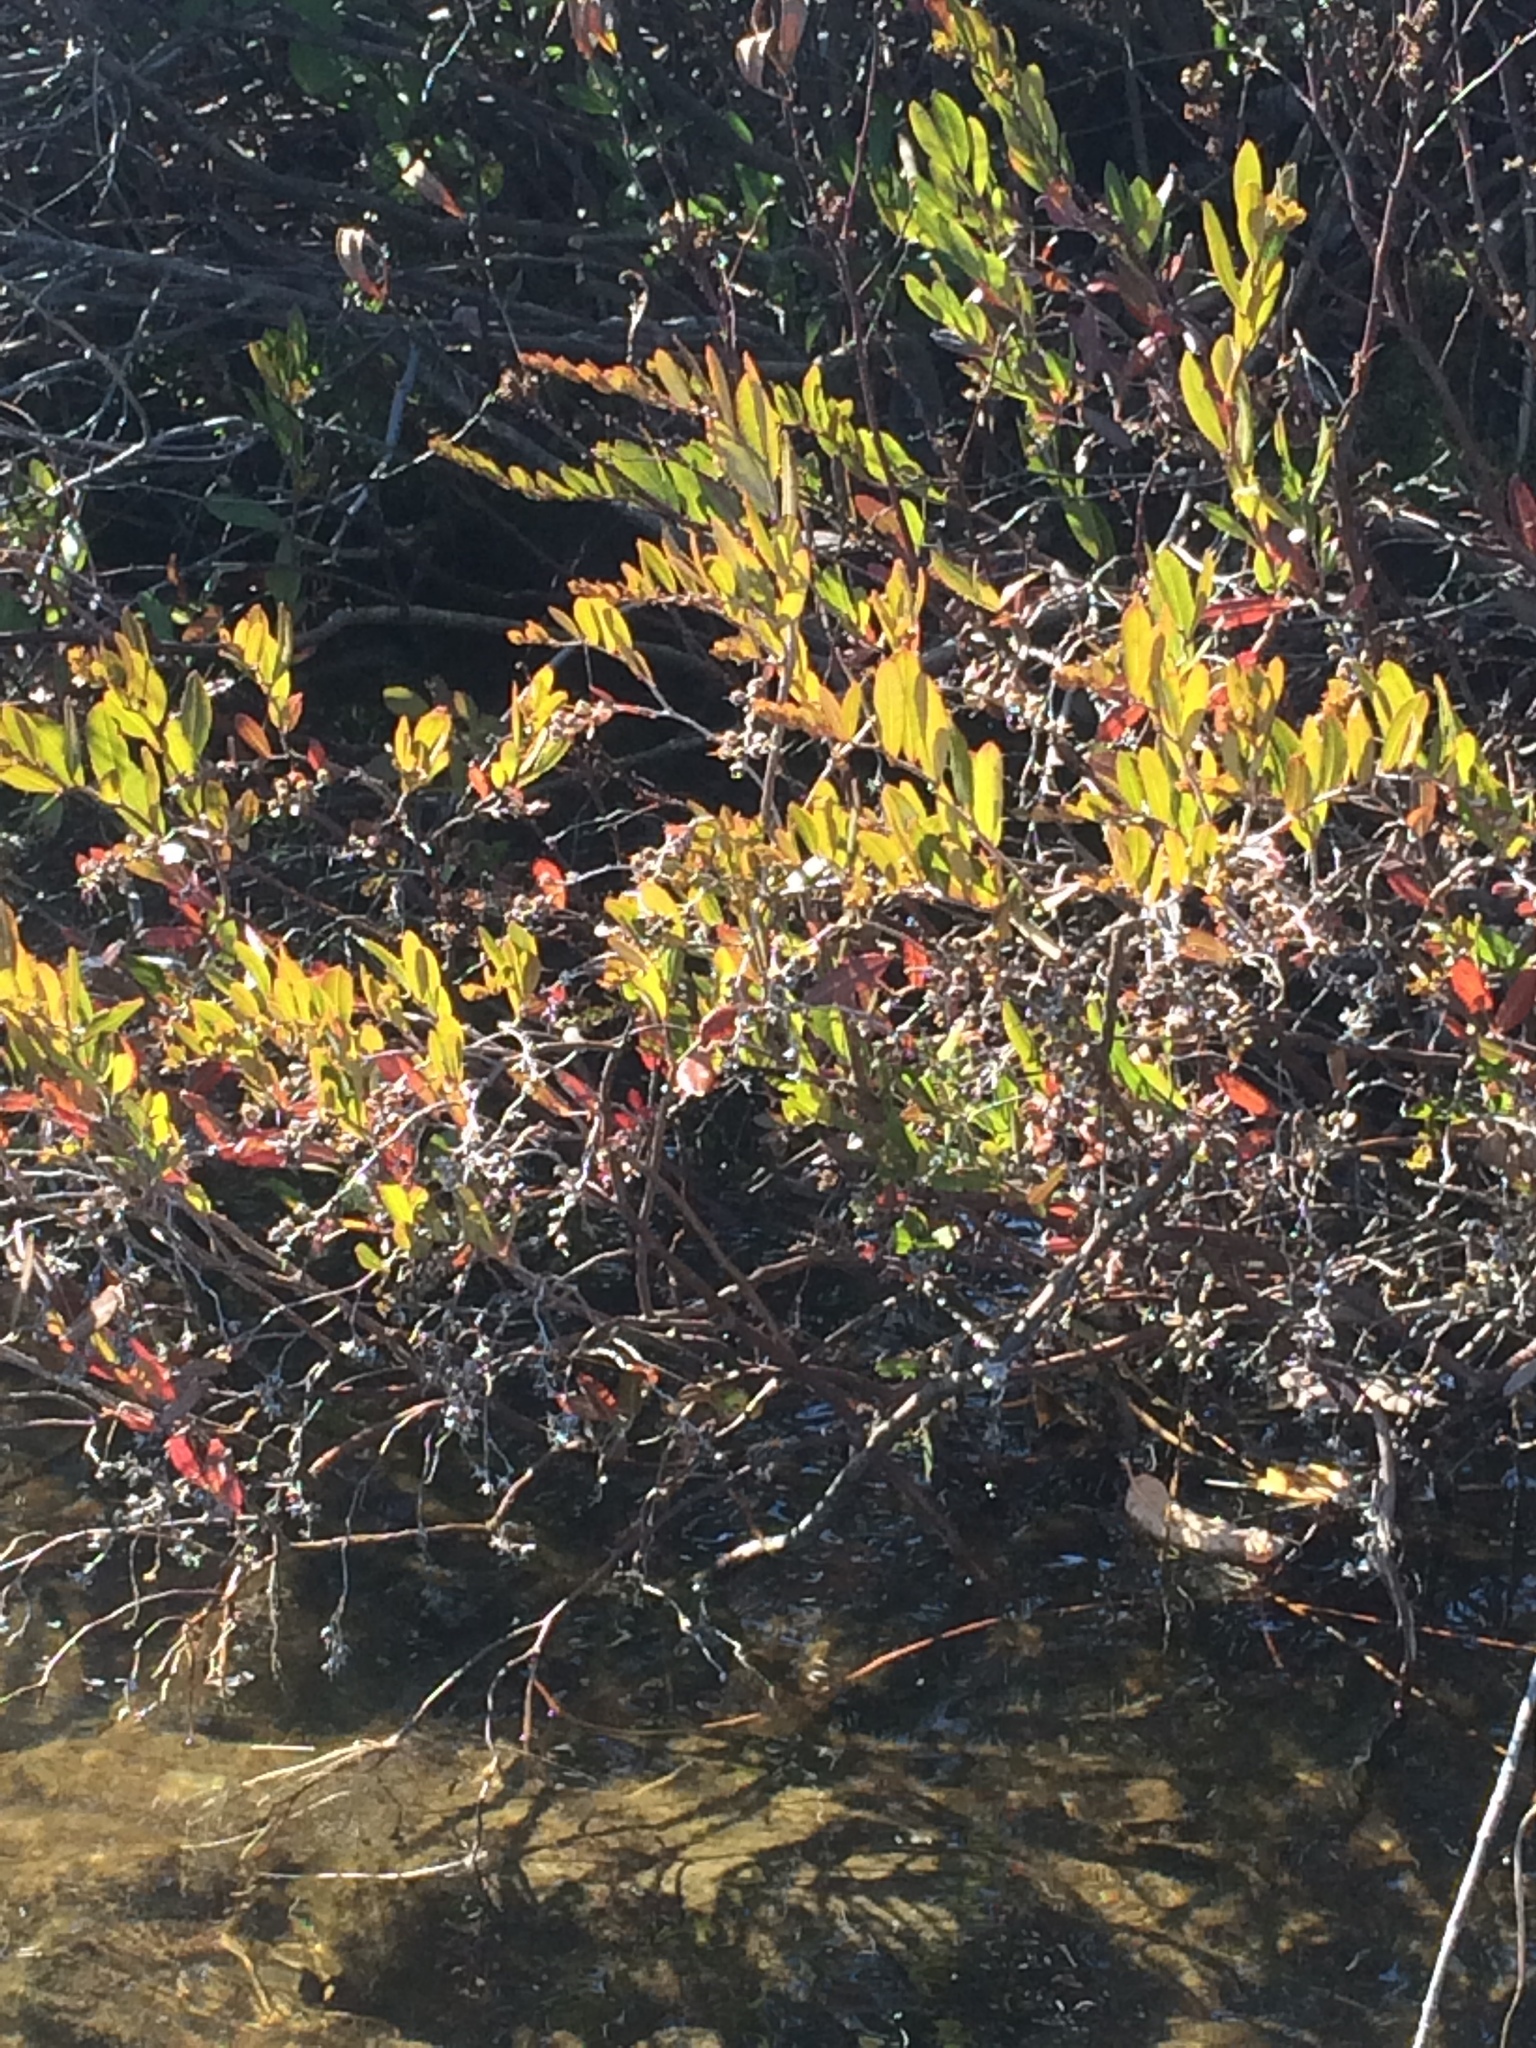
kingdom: Plantae
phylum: Tracheophyta
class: Magnoliopsida
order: Ericales
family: Ericaceae
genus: Chamaedaphne
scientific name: Chamaedaphne calyculata
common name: Leatherleaf
